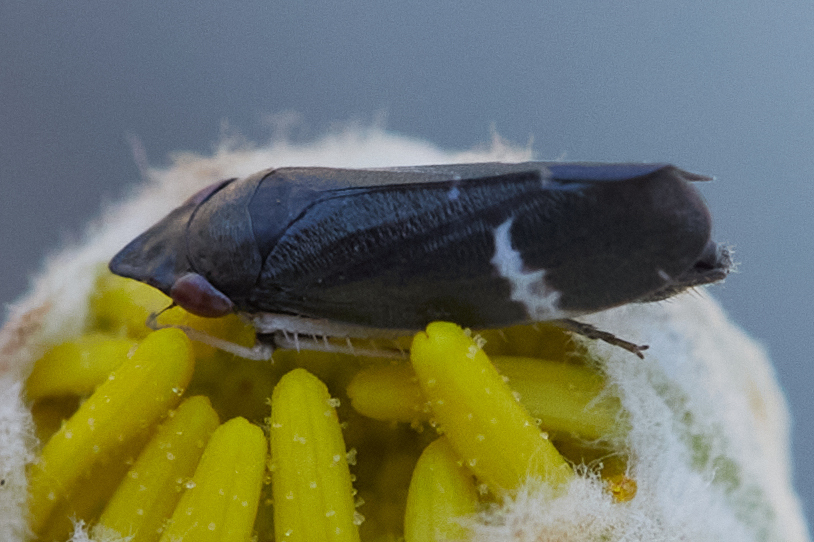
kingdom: Animalia
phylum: Arthropoda
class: Insecta
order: Hemiptera
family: Cicadellidae
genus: Cochlorhinus
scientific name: Cochlorhinus pluto
